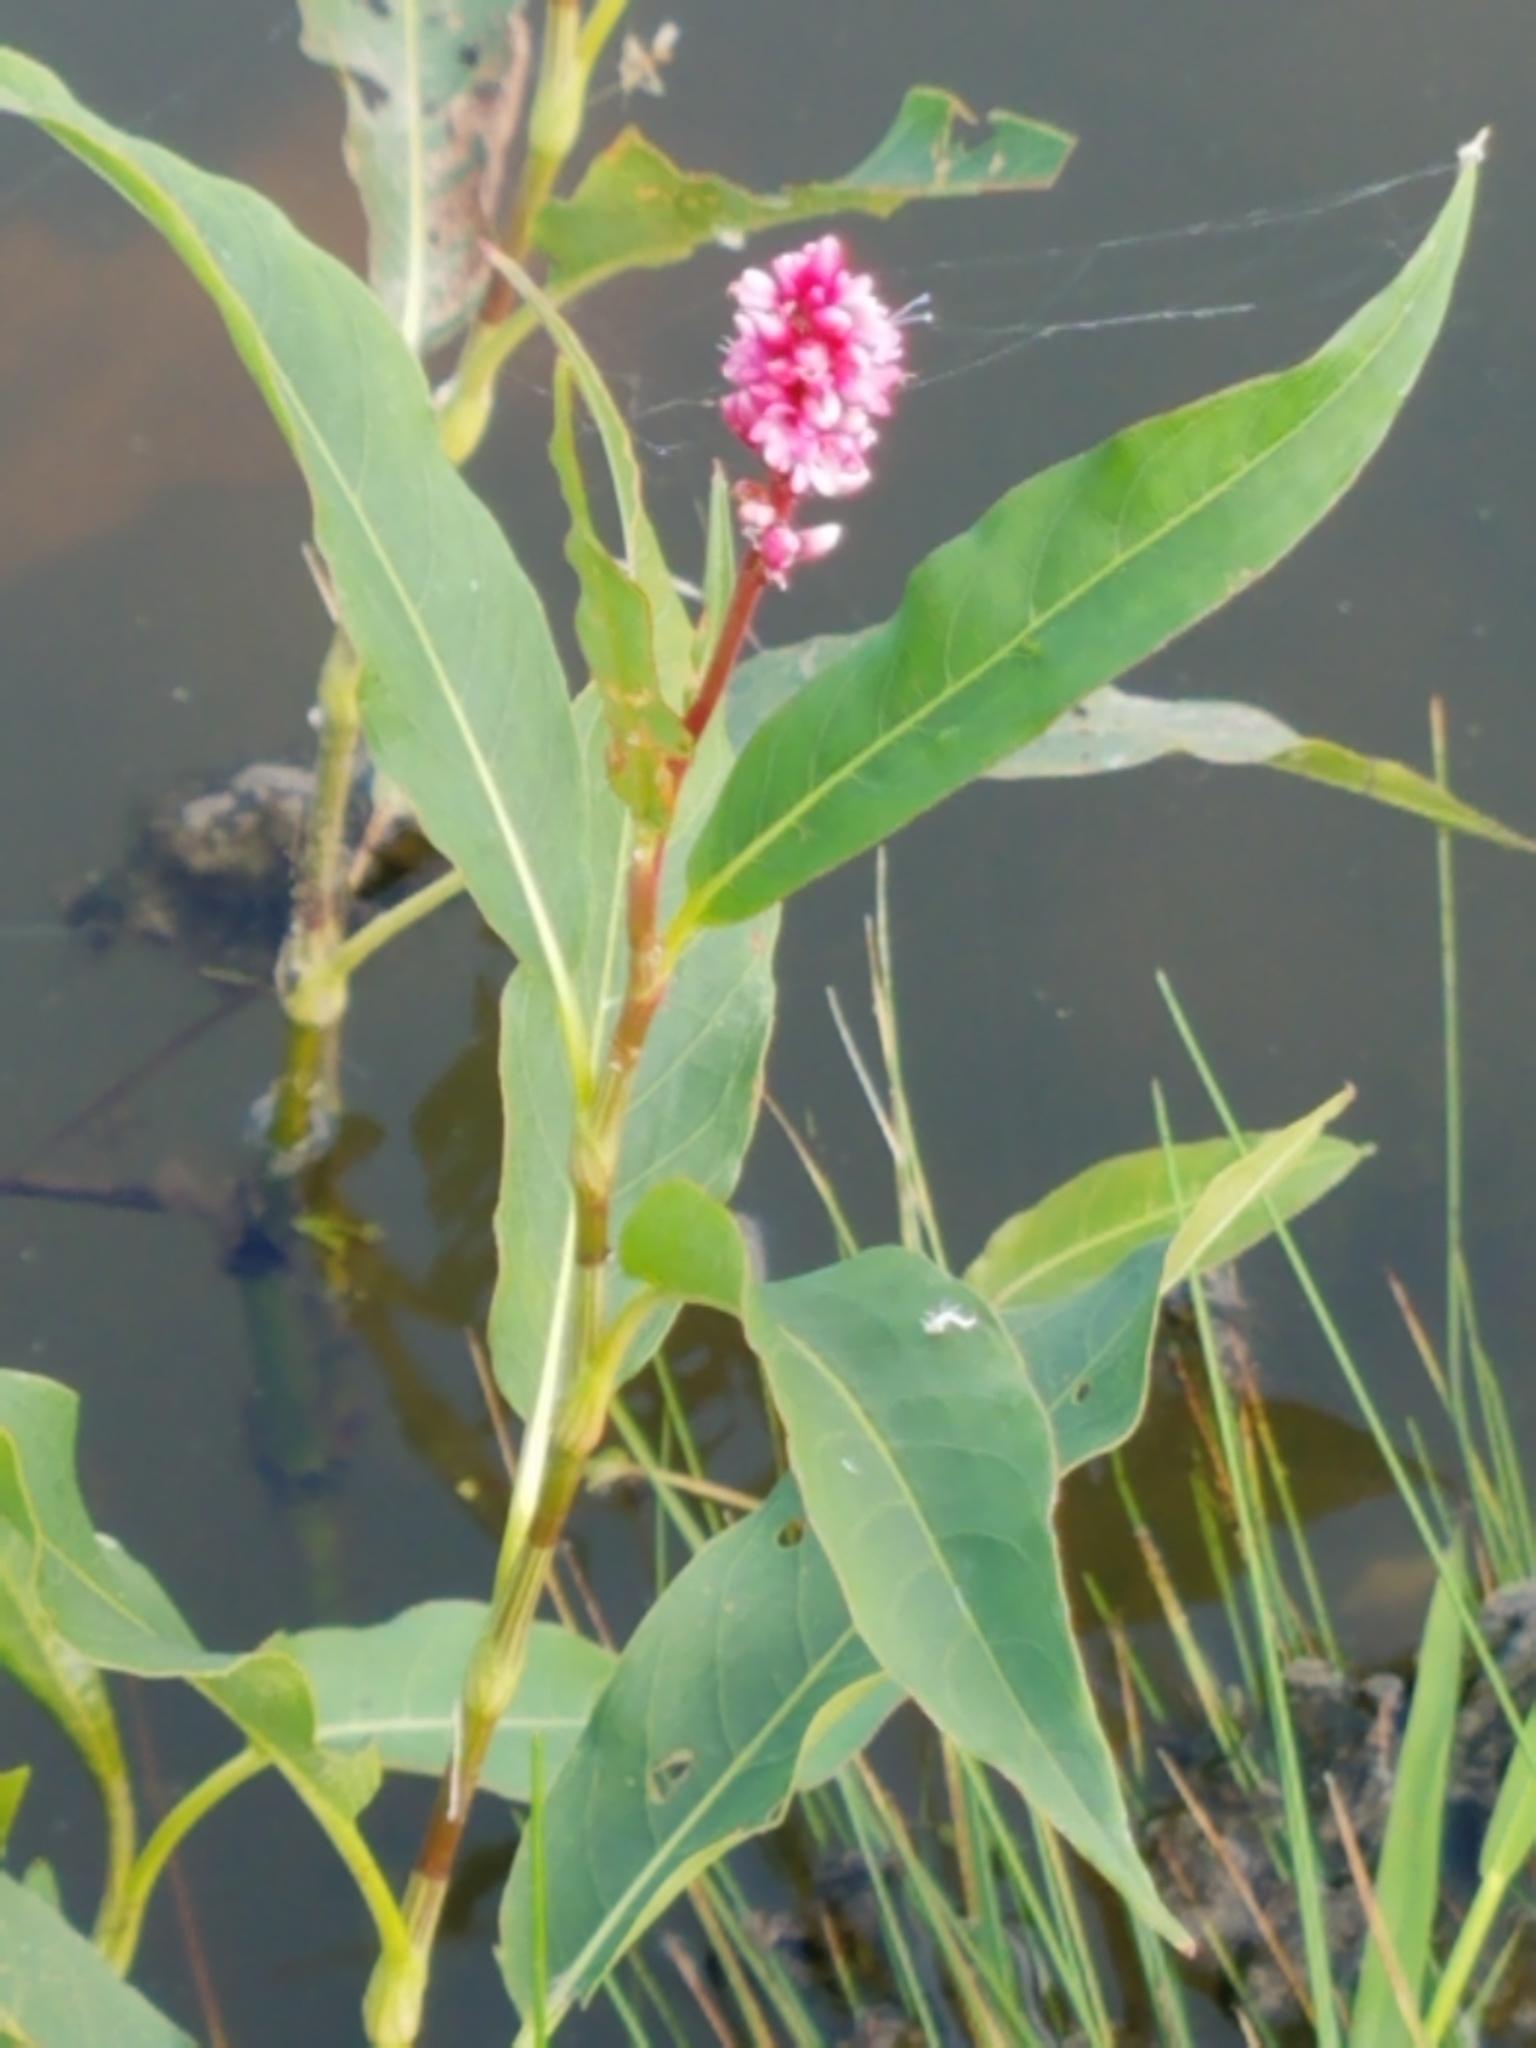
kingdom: Plantae
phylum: Tracheophyta
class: Magnoliopsida
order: Caryophyllales
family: Polygonaceae
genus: Persicaria
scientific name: Persicaria amphibia
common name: Amphibious bistort
